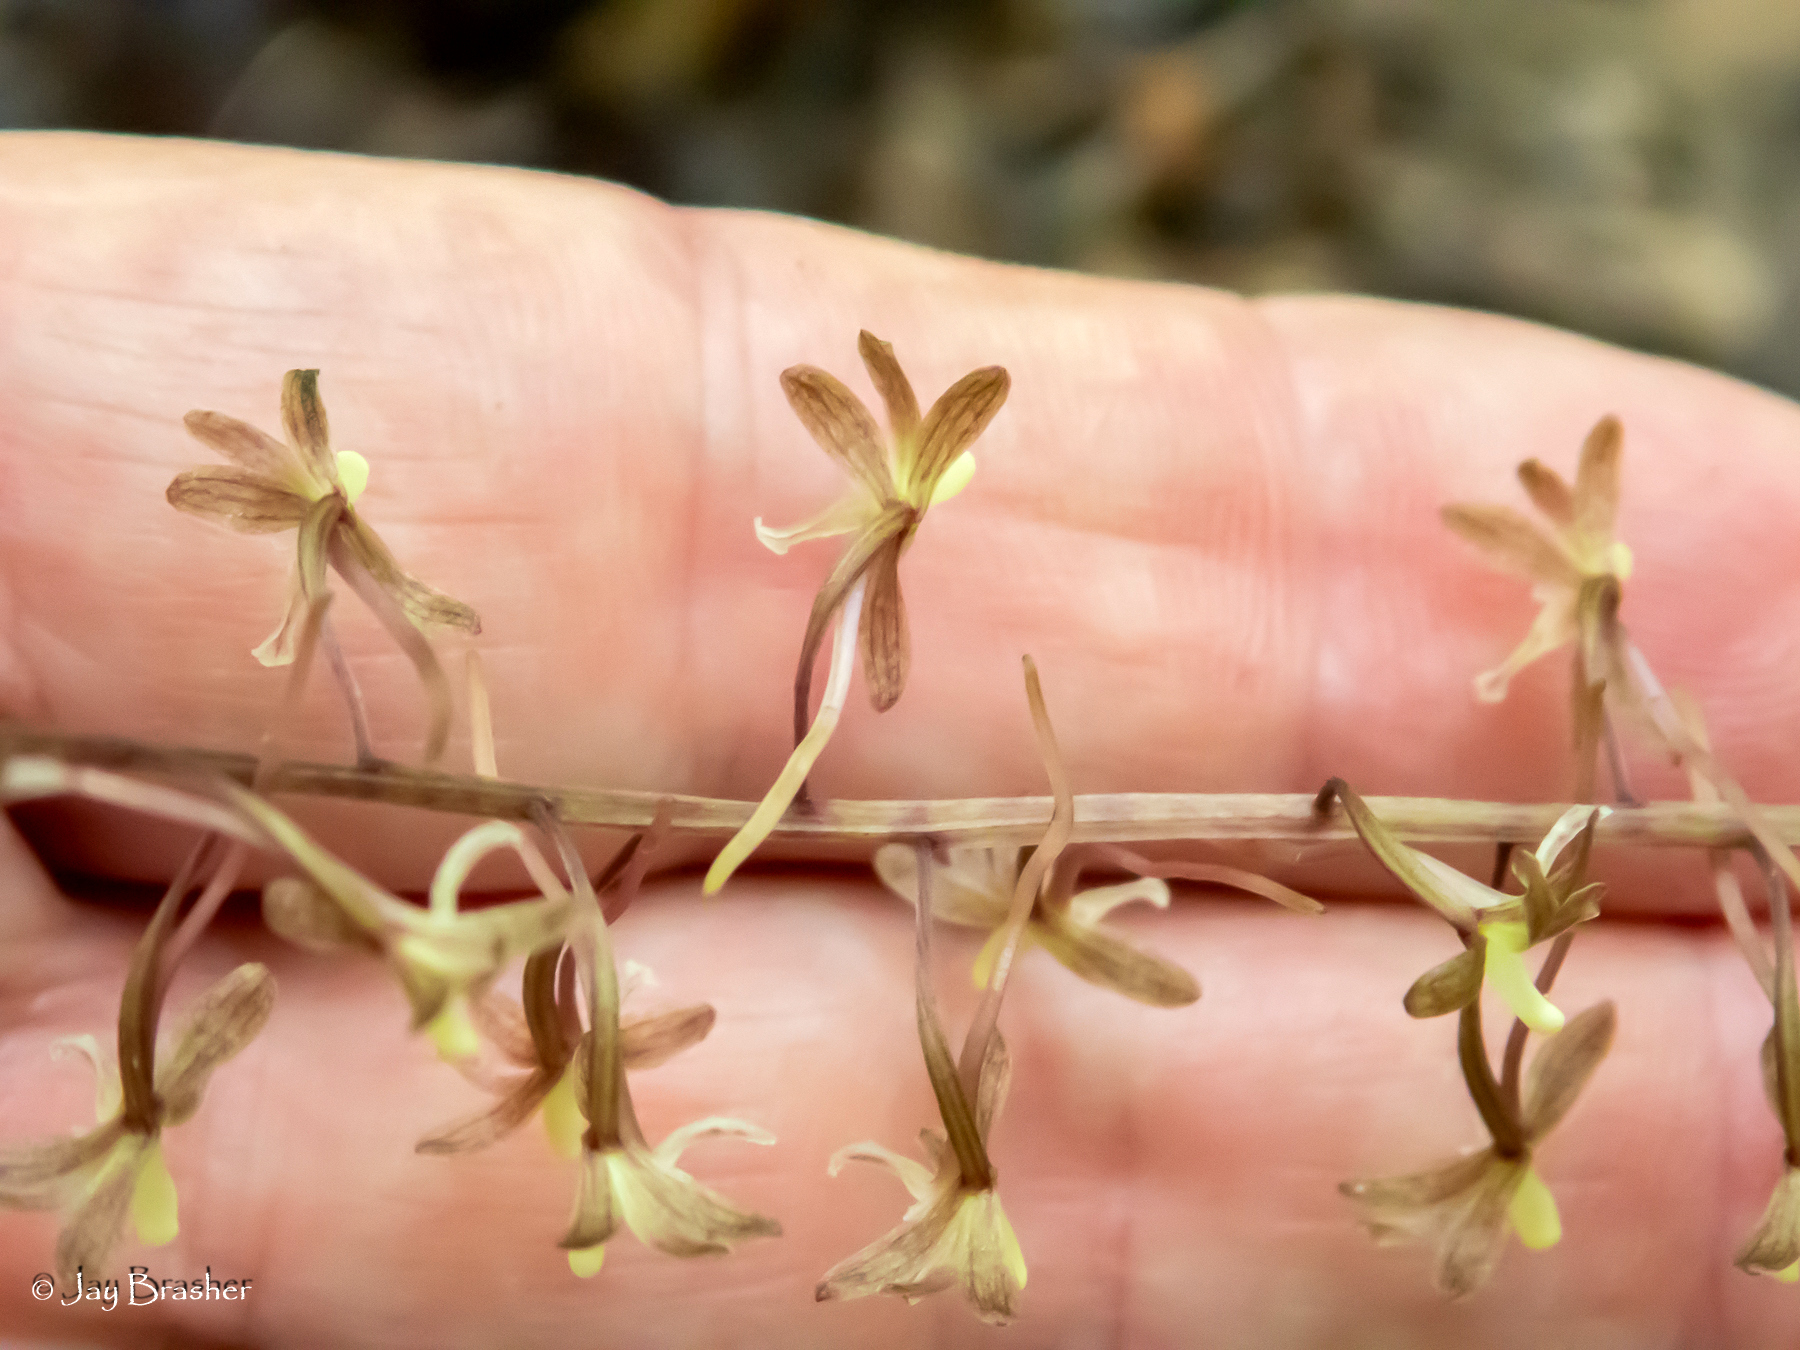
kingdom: Plantae
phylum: Tracheophyta
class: Liliopsida
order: Asparagales
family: Orchidaceae
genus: Tipularia
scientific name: Tipularia discolor
